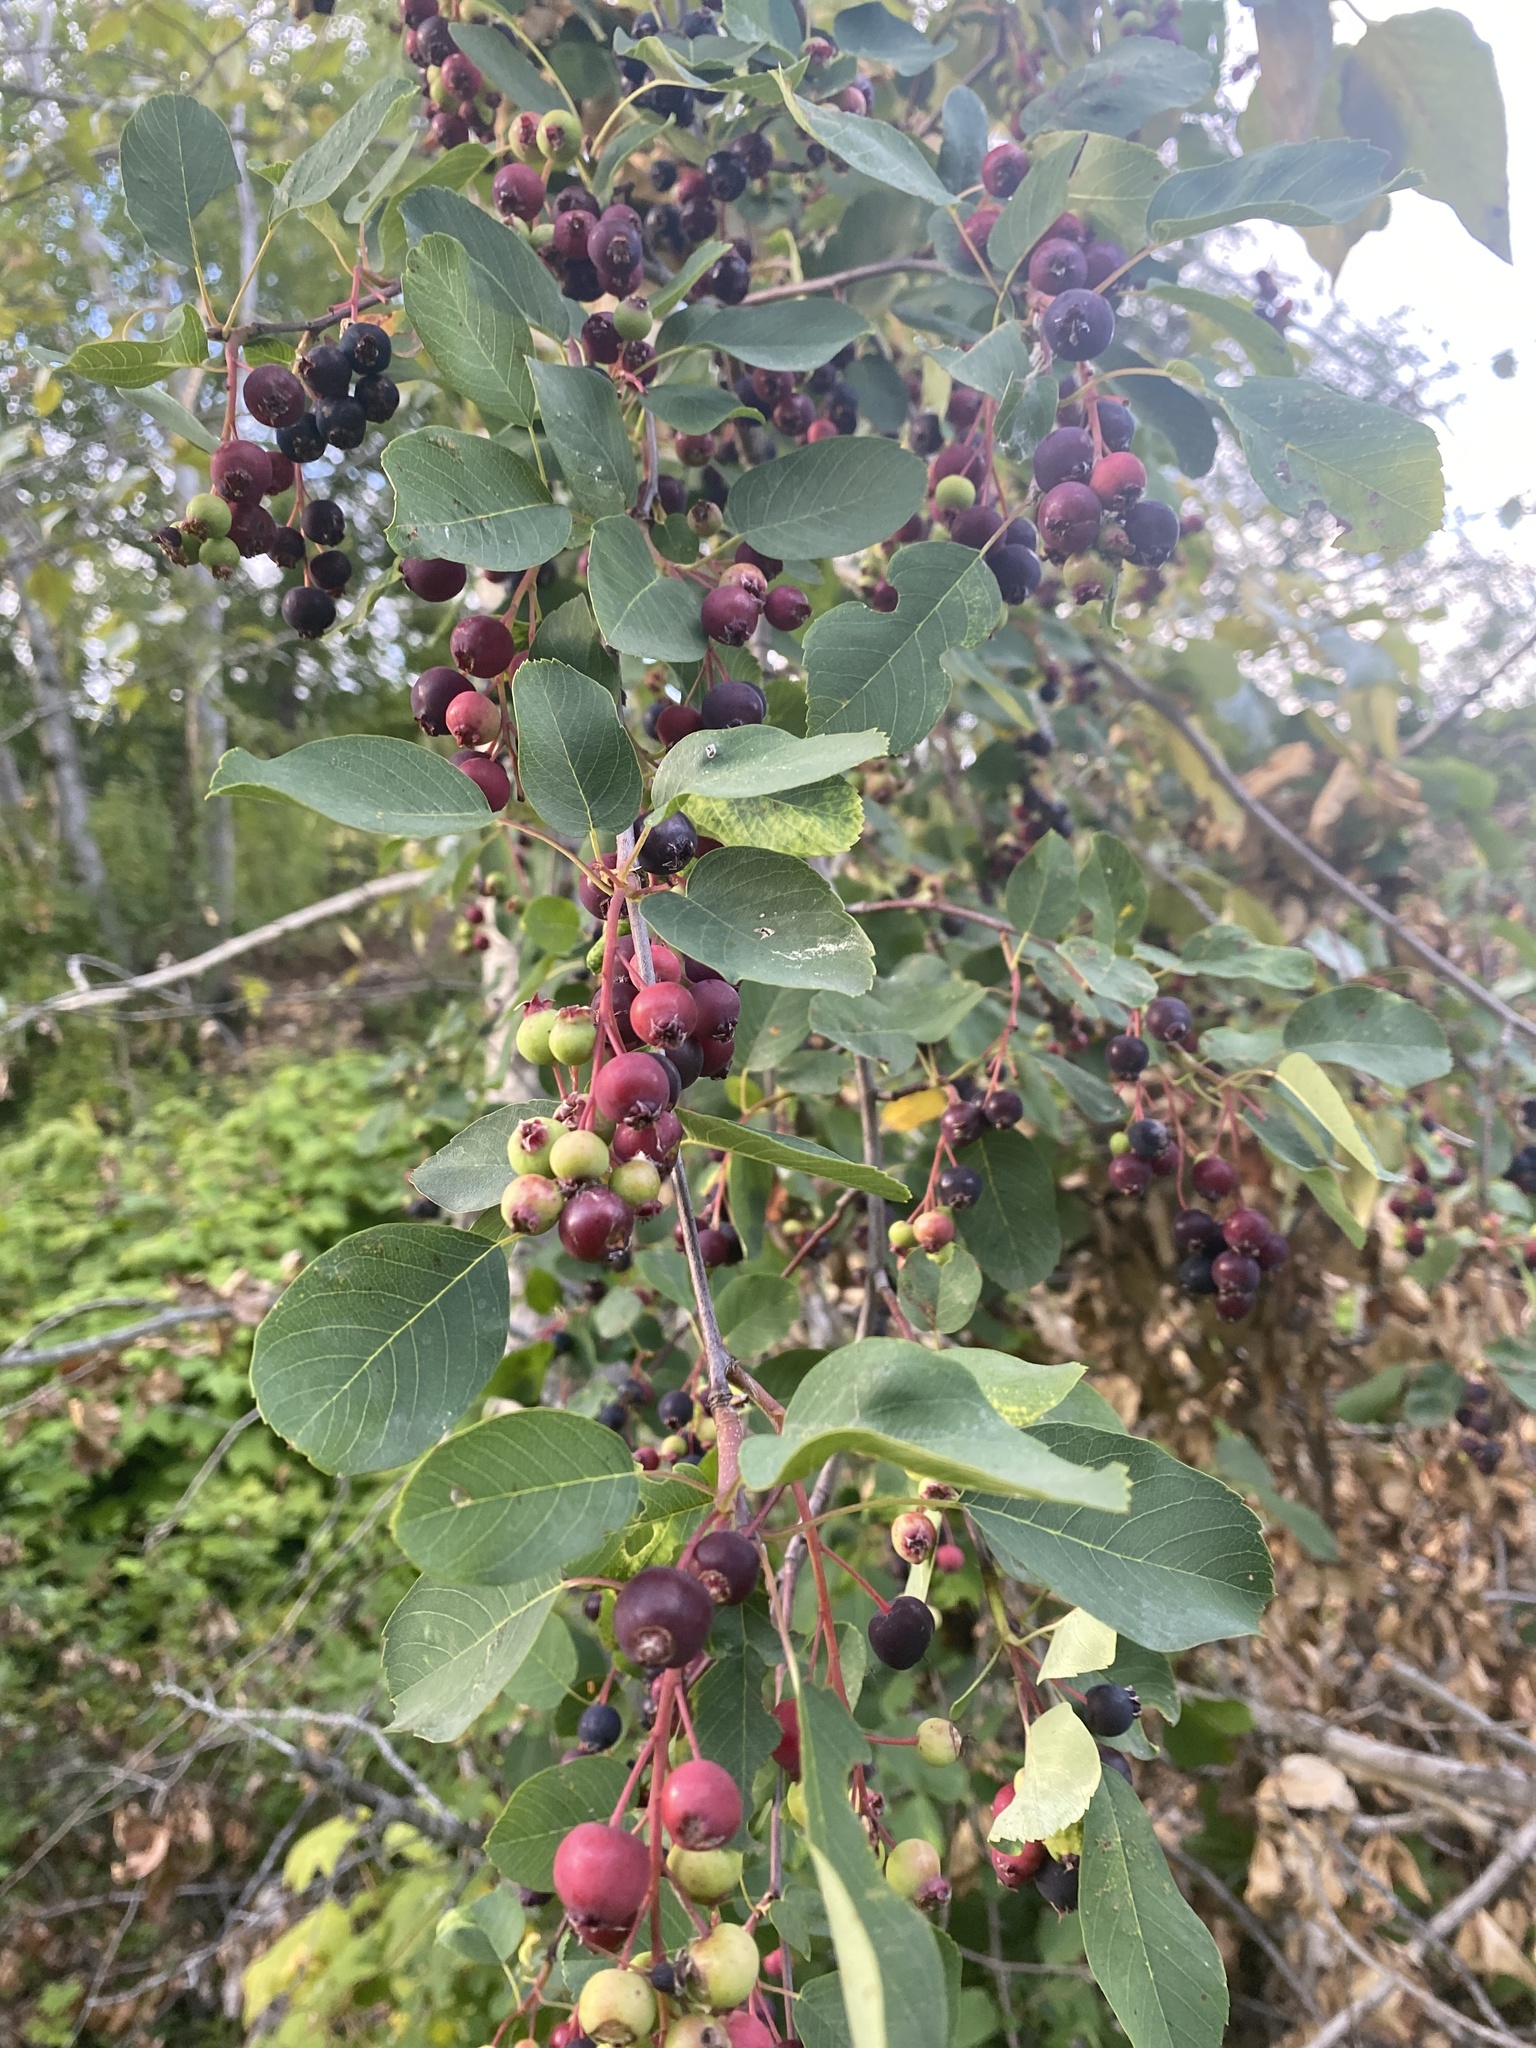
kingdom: Plantae
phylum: Tracheophyta
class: Magnoliopsida
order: Rosales
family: Rosaceae
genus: Amelanchier
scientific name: Amelanchier alnifolia
